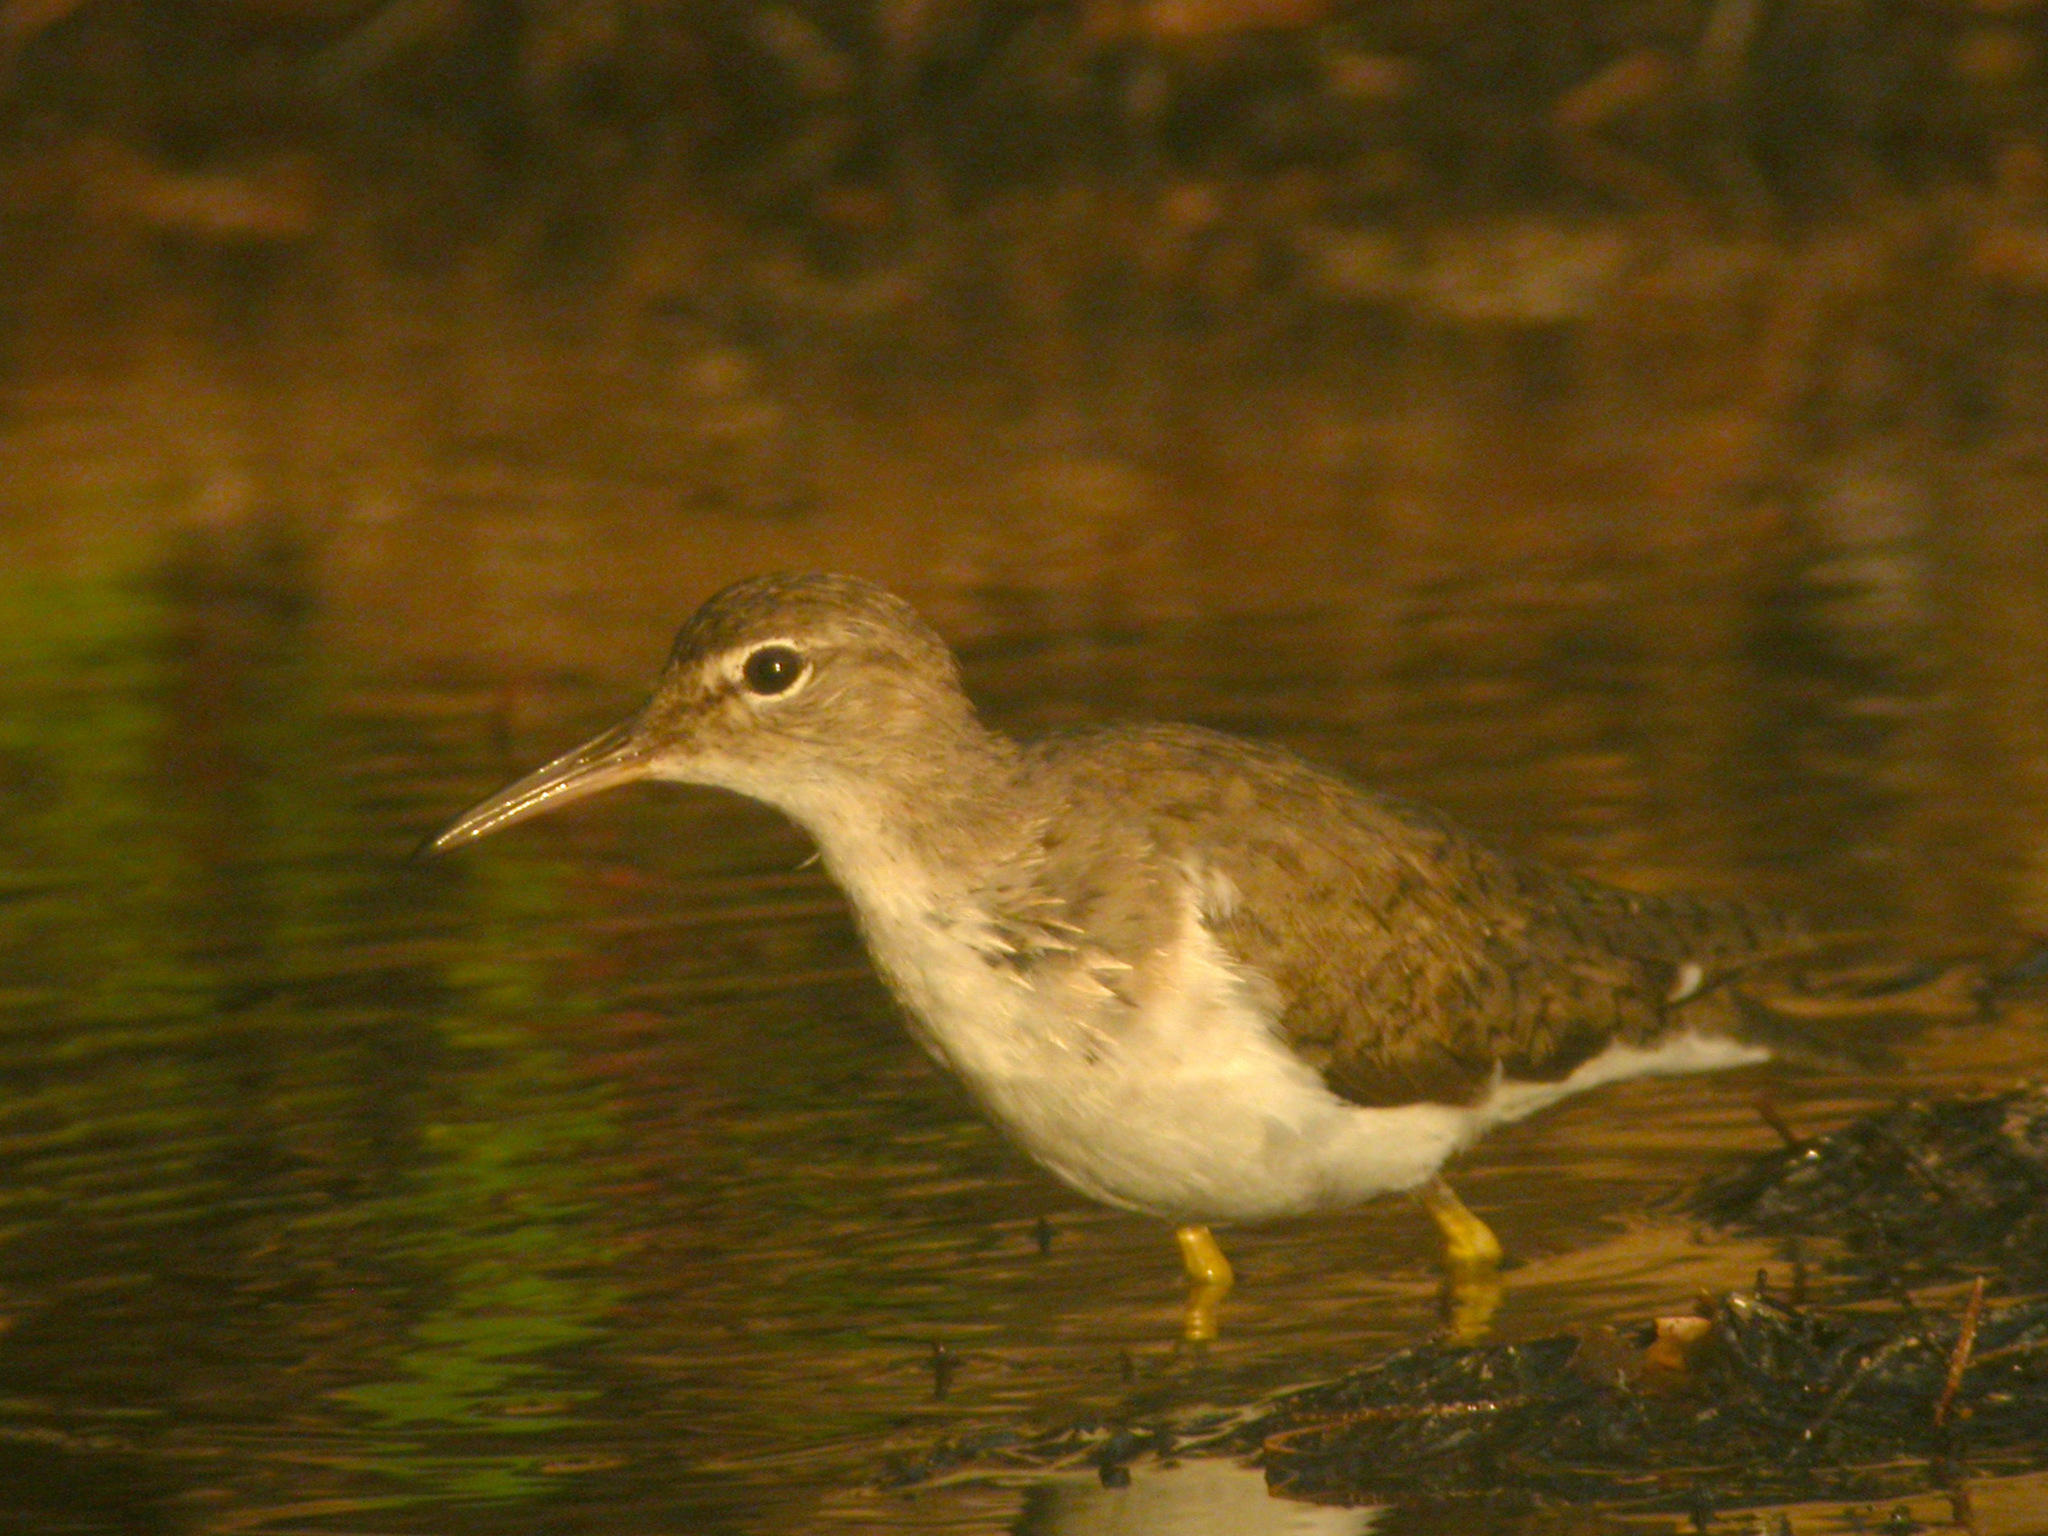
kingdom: Animalia
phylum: Chordata
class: Aves
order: Charadriiformes
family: Scolopacidae
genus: Actitis
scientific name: Actitis macularius
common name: Spotted sandpiper
